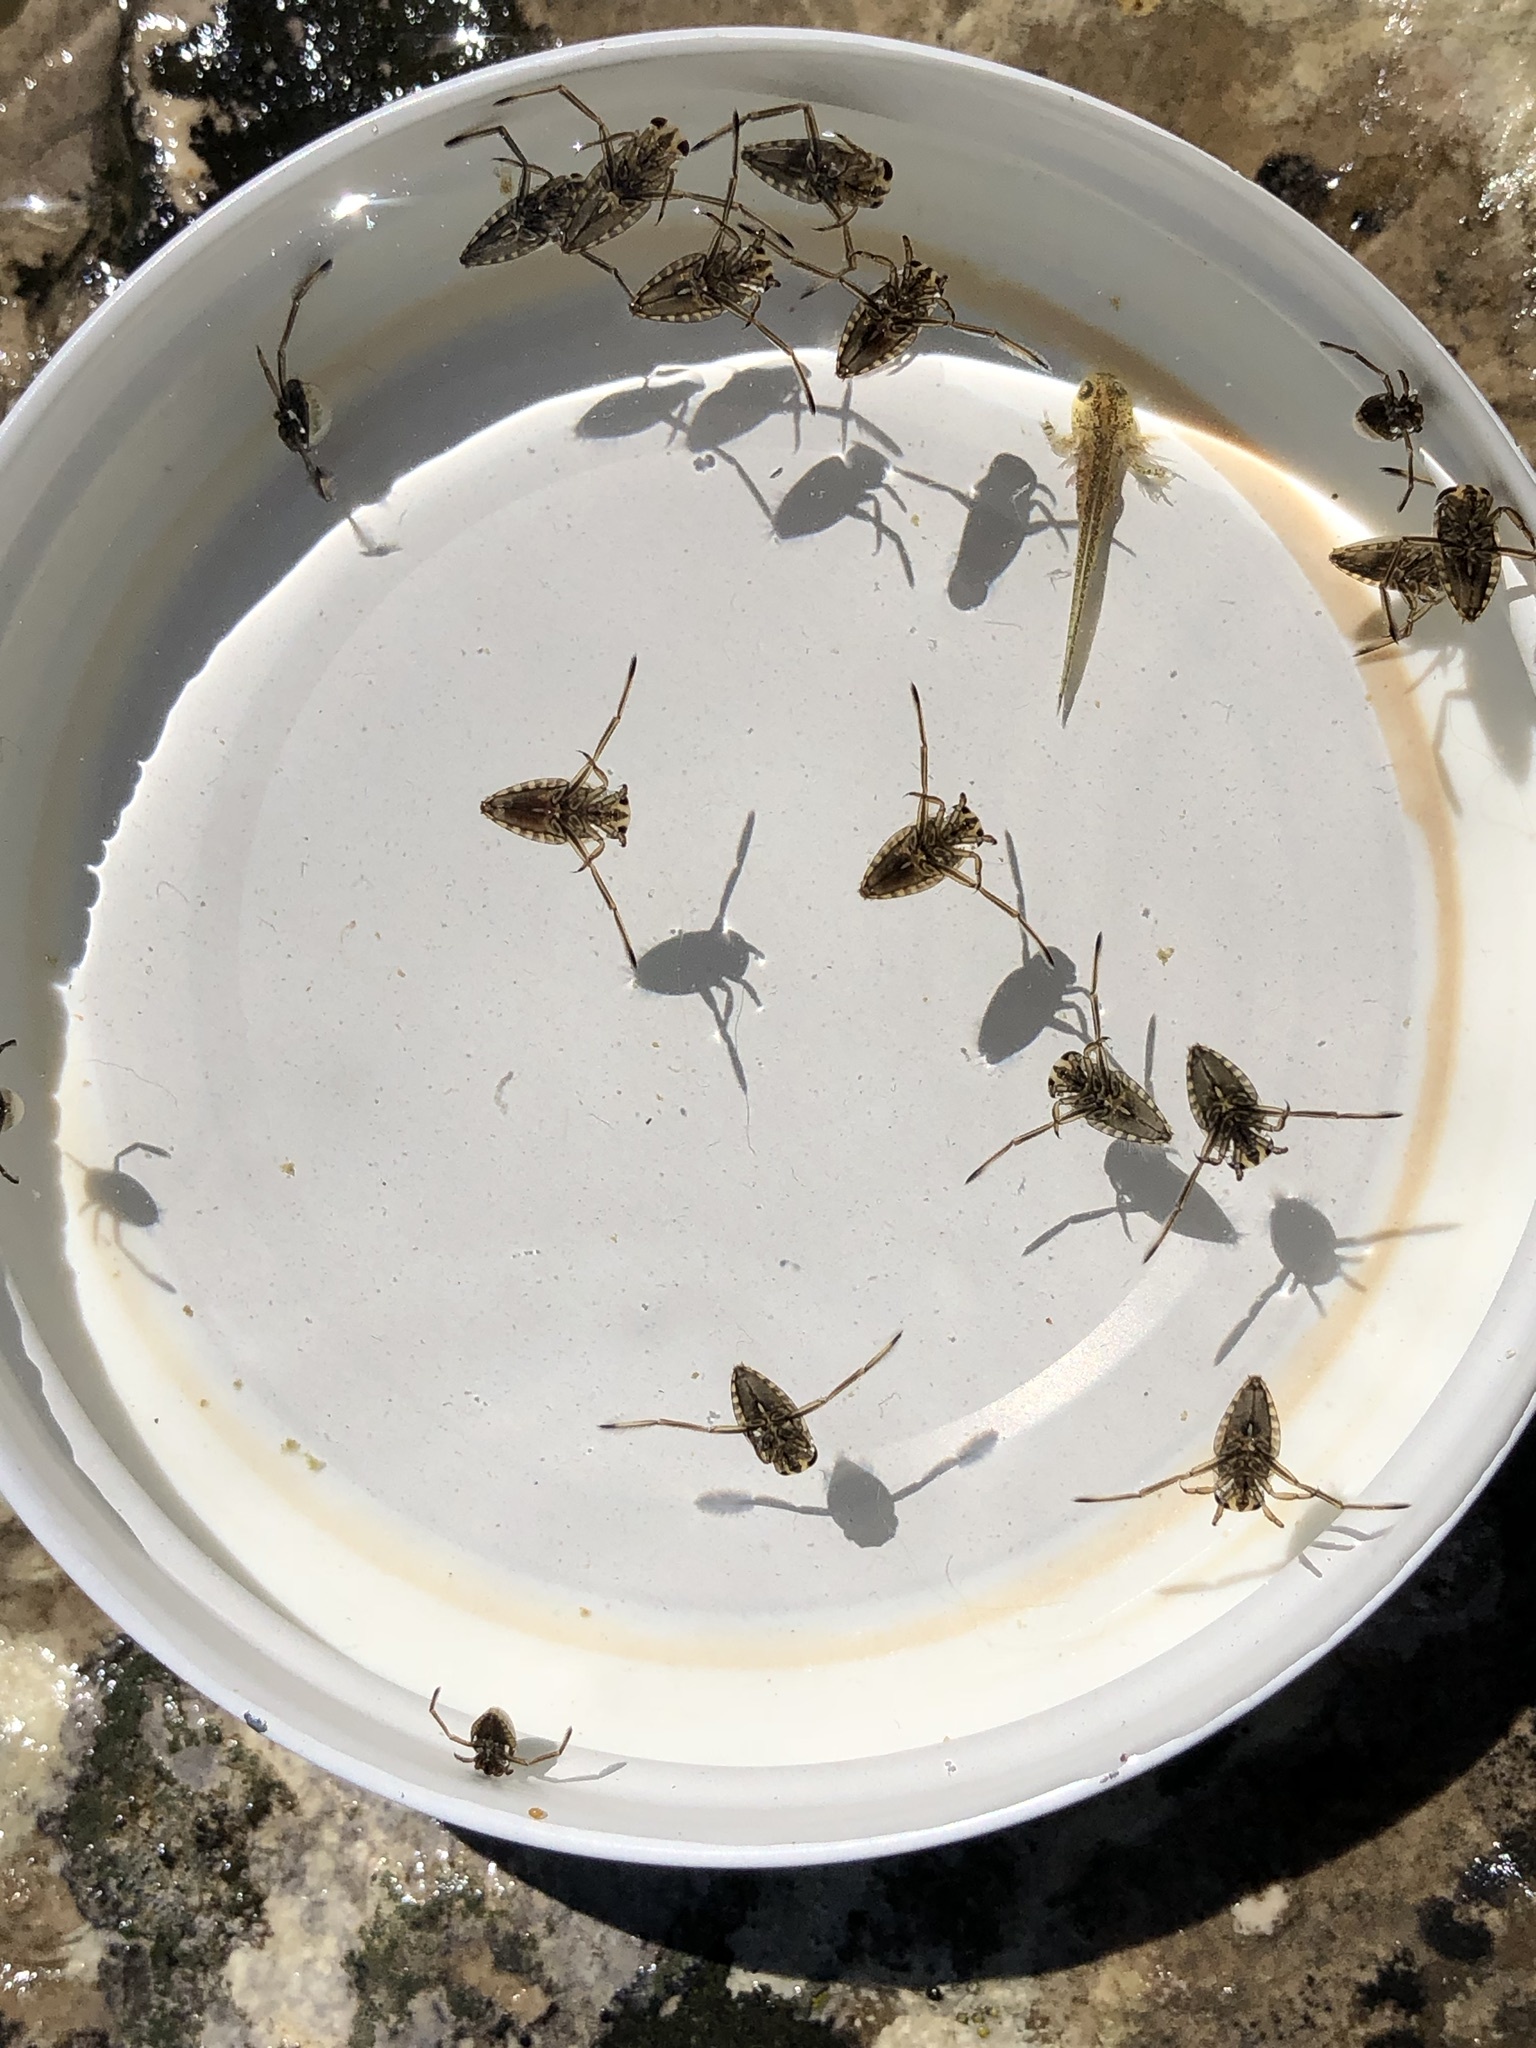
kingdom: Animalia
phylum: Arthropoda
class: Insecta
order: Hemiptera
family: Notonectidae
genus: Notonecta
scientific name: Notonecta
